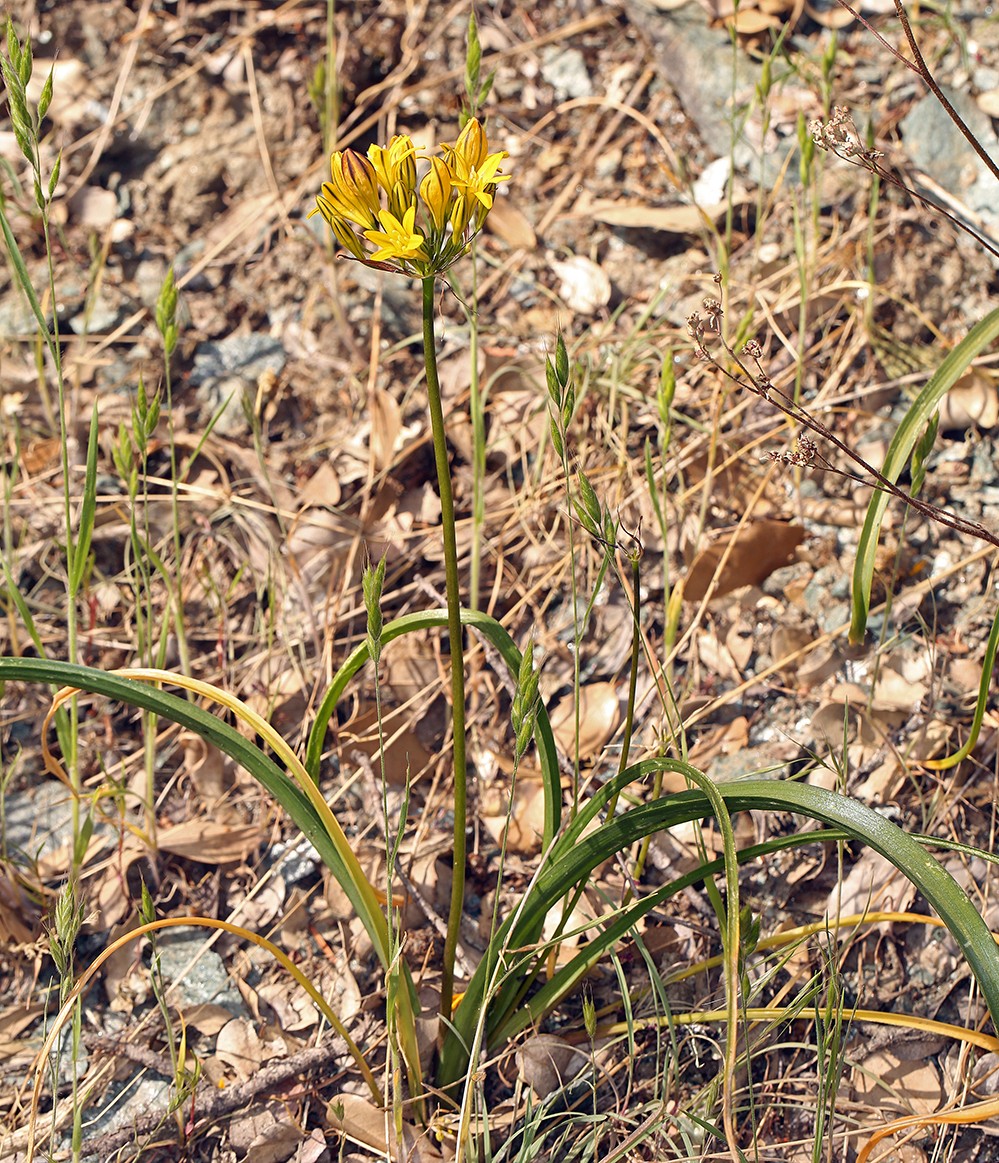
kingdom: Plantae
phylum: Tracheophyta
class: Liliopsida
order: Asparagales
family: Asparagaceae
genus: Triteleia
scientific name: Triteleia crocea
